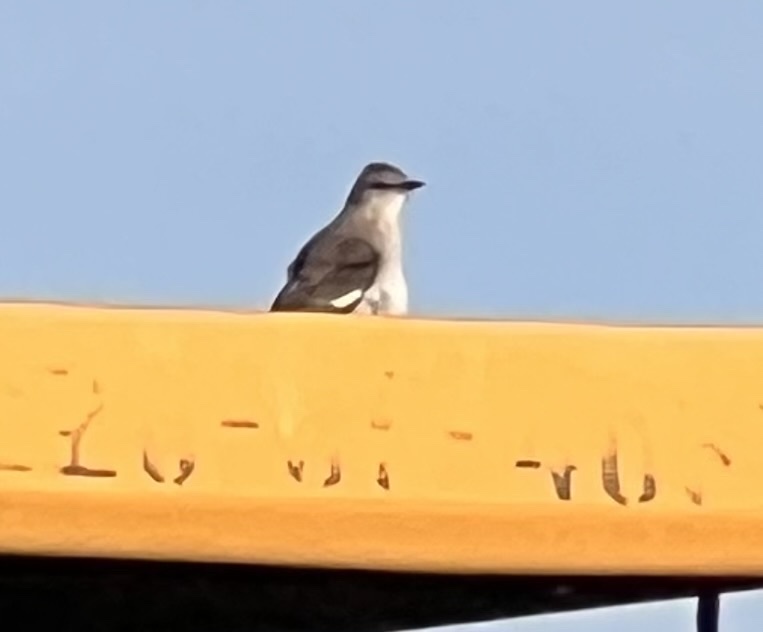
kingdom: Animalia
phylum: Chordata
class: Aves
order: Passeriformes
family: Mimidae
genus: Mimus
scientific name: Mimus polyglottos
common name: Northern mockingbird
